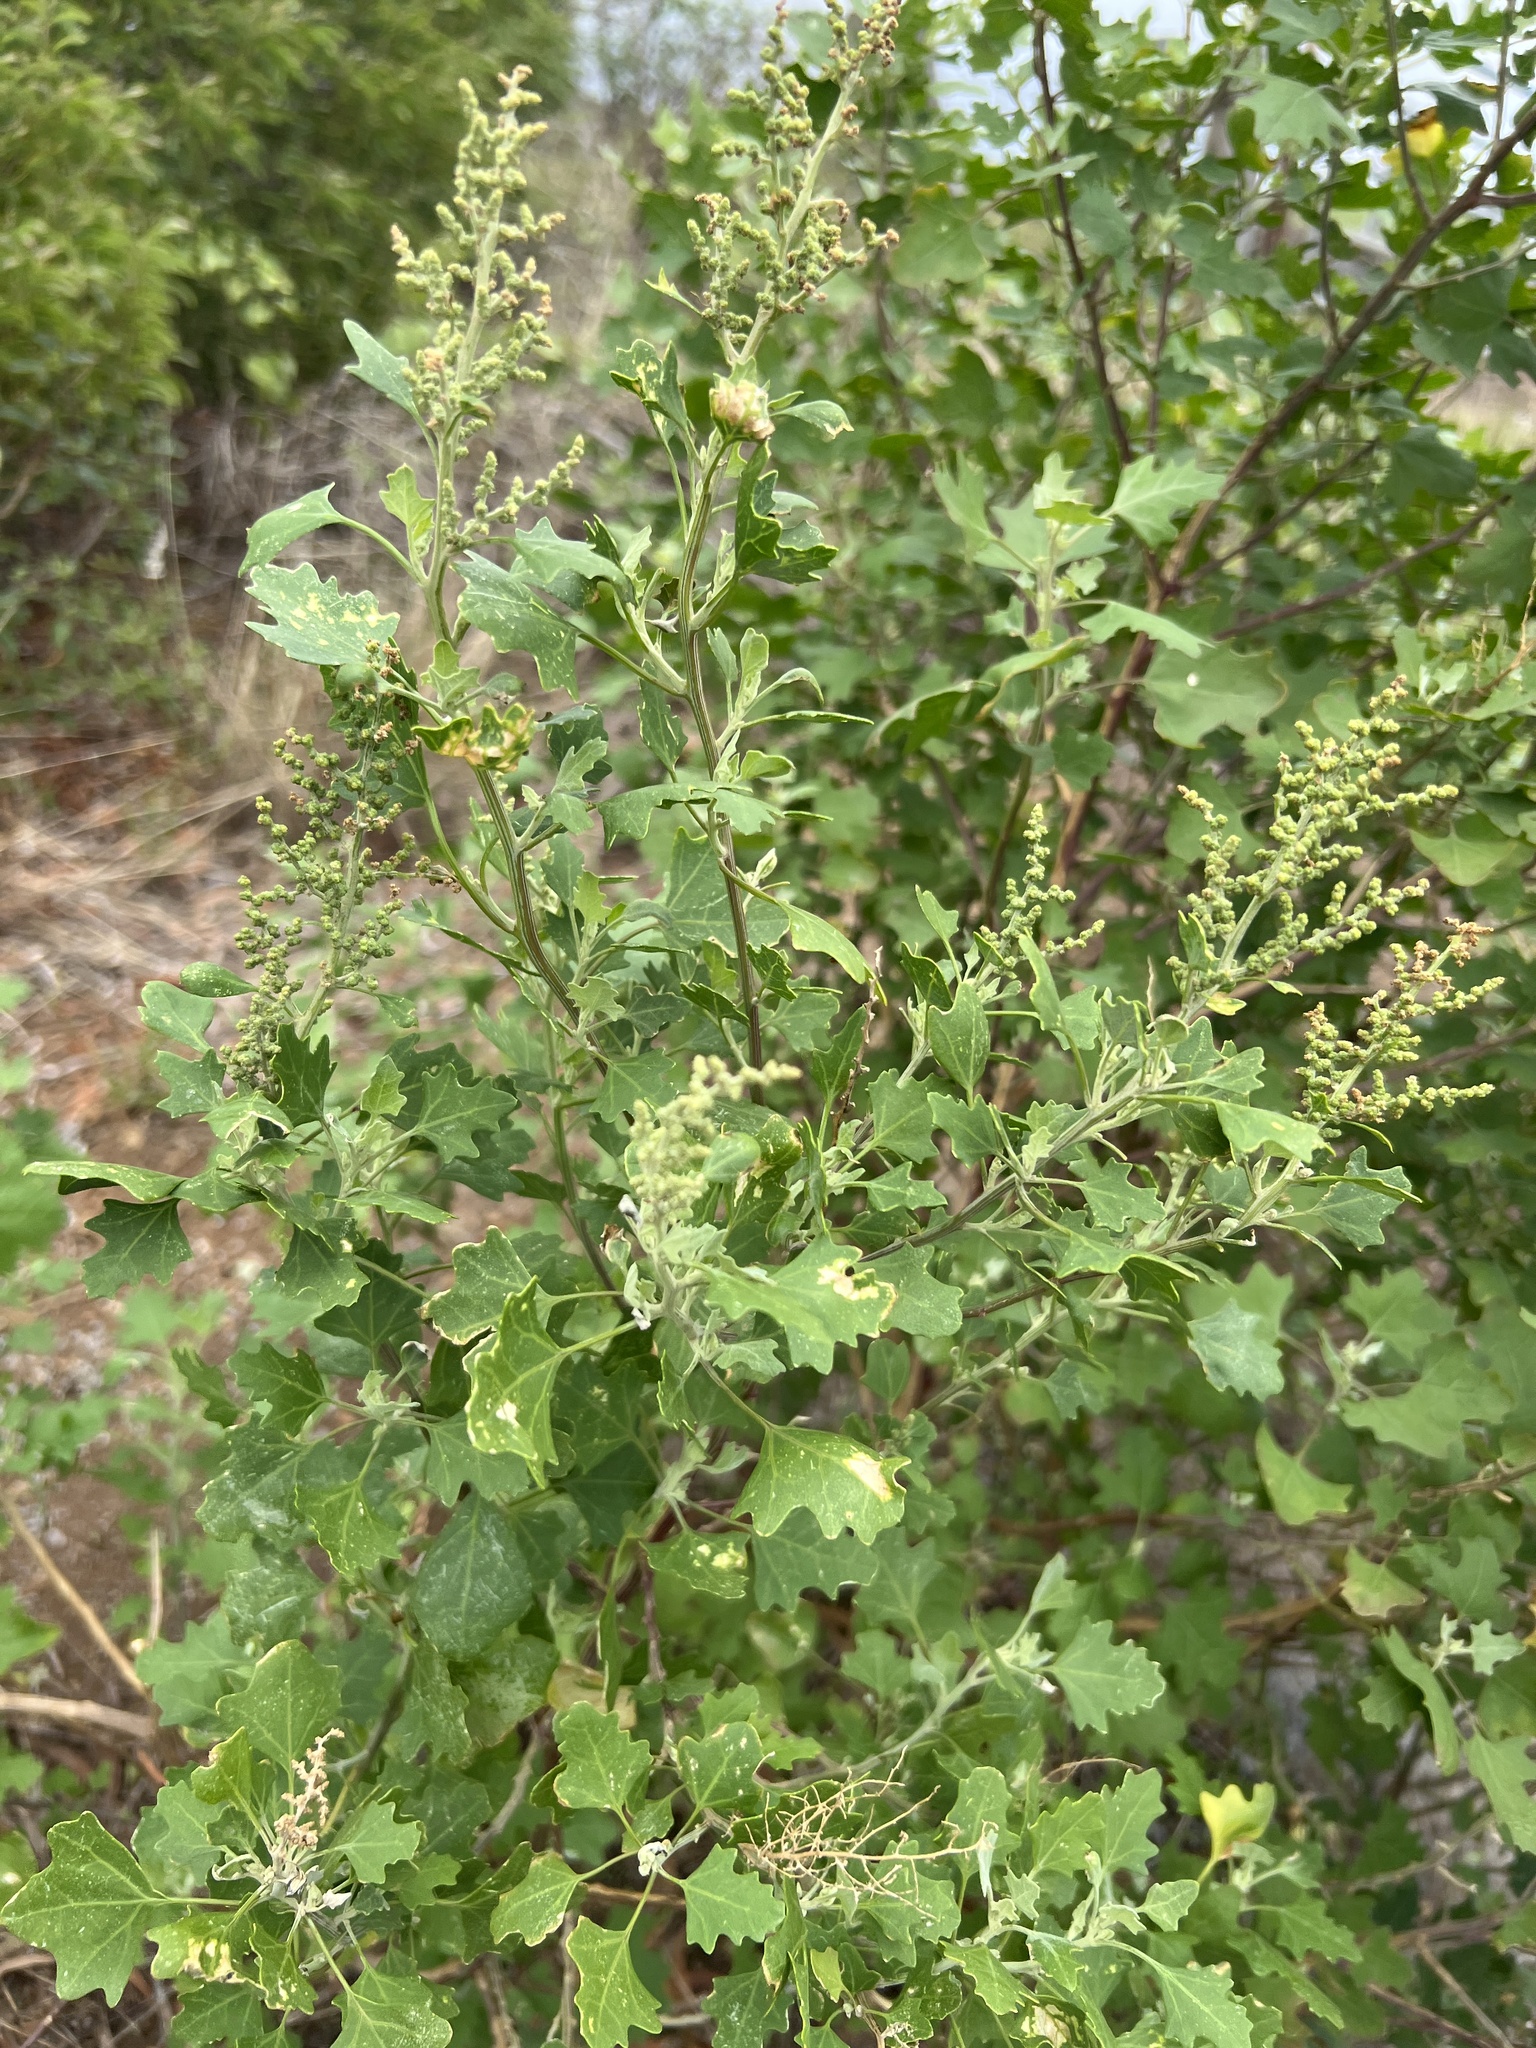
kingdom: Plantae
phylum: Tracheophyta
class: Magnoliopsida
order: Caryophyllales
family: Amaranthaceae
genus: Chenopodium
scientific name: Chenopodium oahuense
